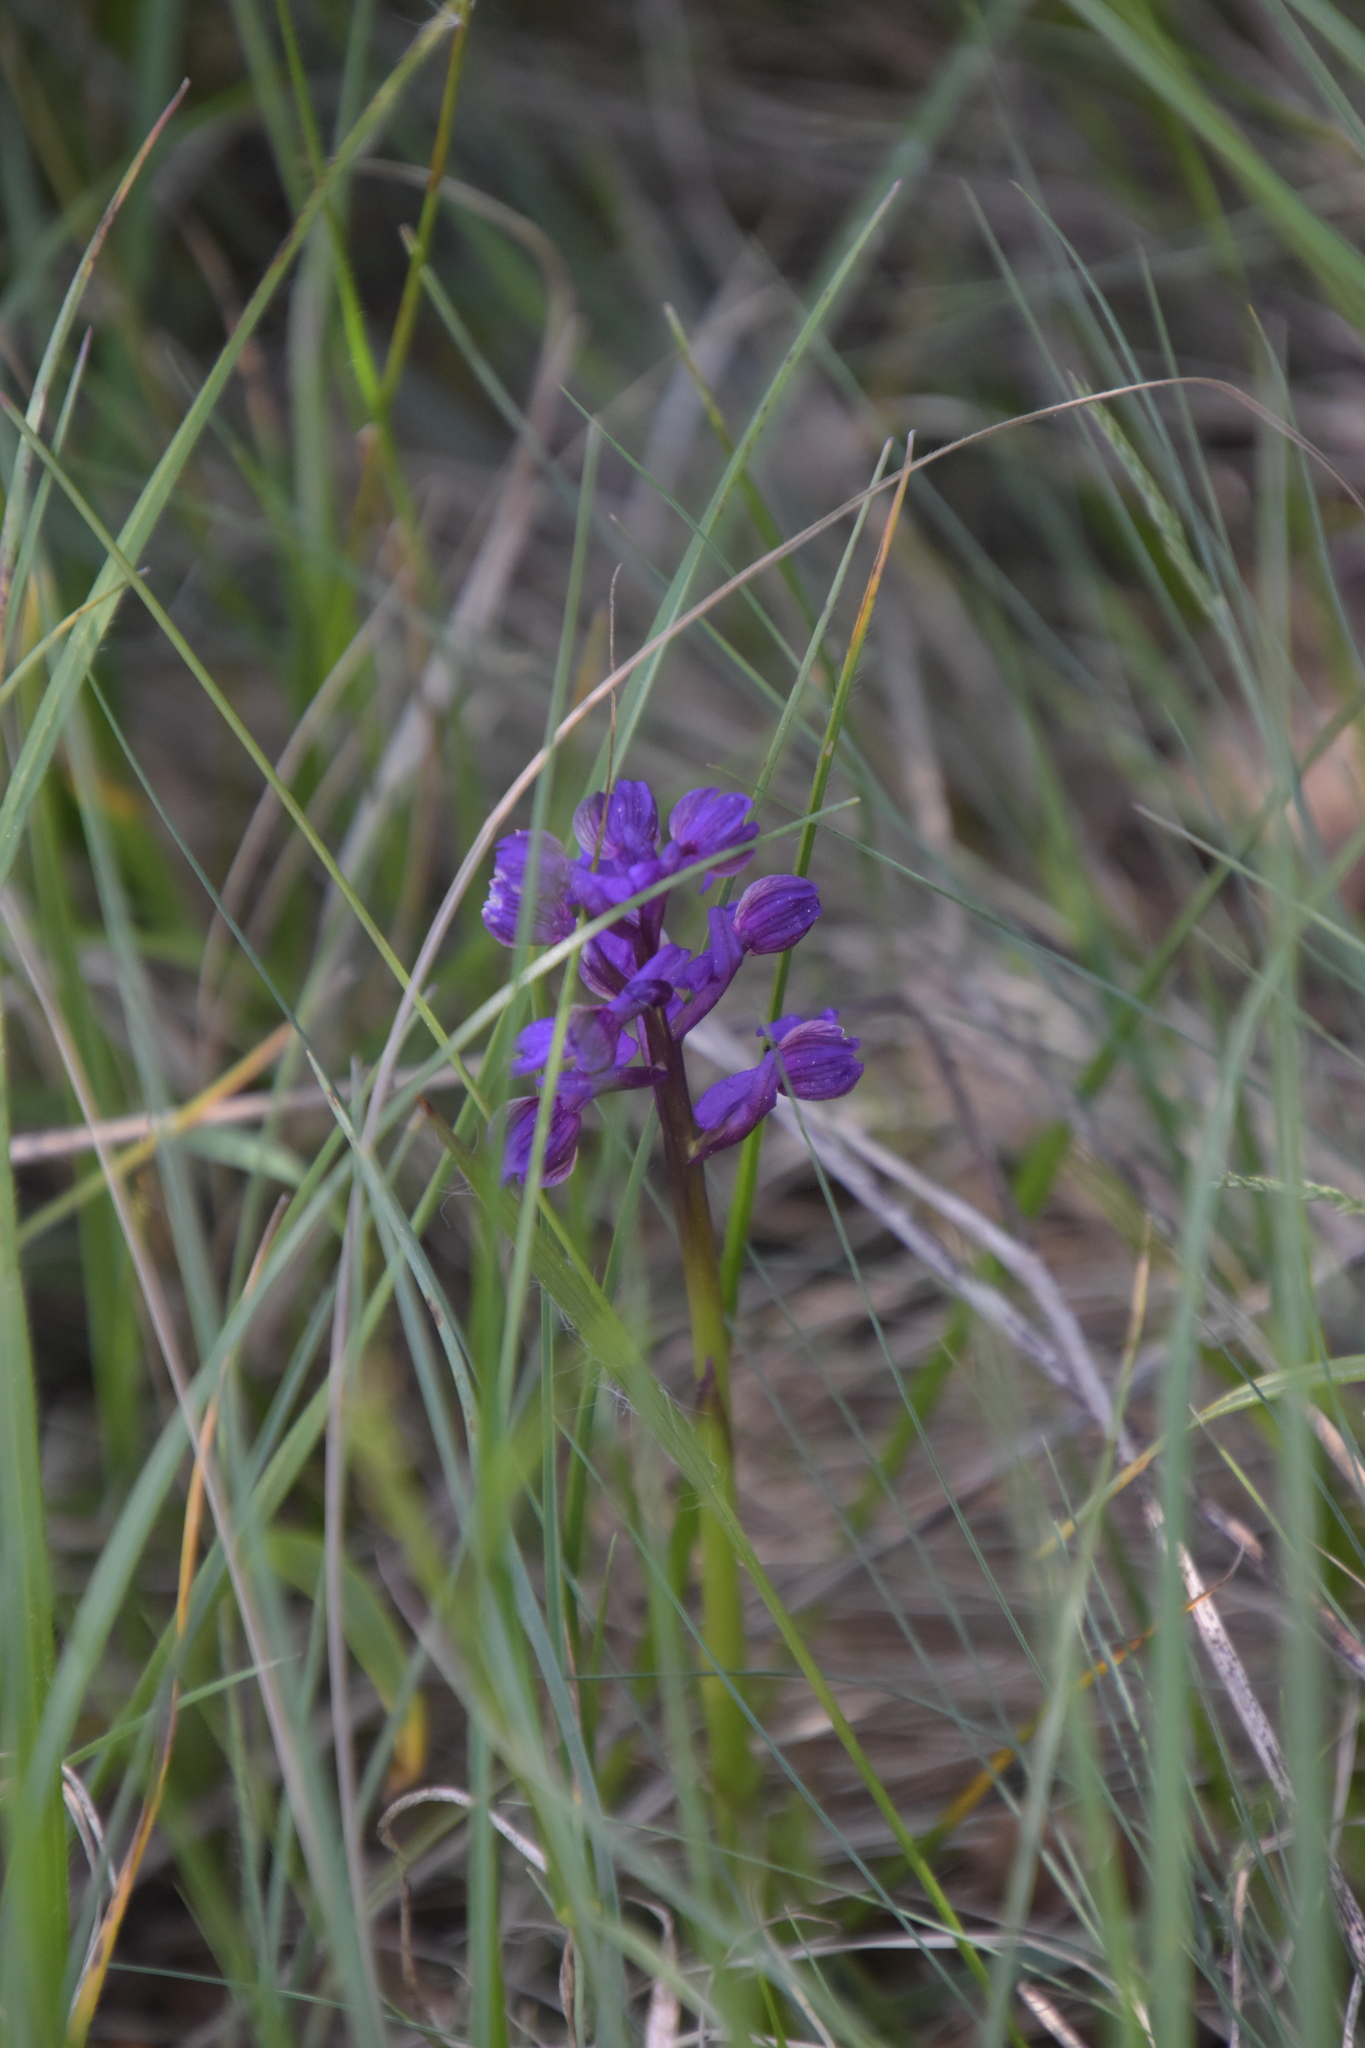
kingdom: Plantae
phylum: Tracheophyta
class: Liliopsida
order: Asparagales
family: Orchidaceae
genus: Anacamptis
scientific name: Anacamptis morio
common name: Green-winged orchid
